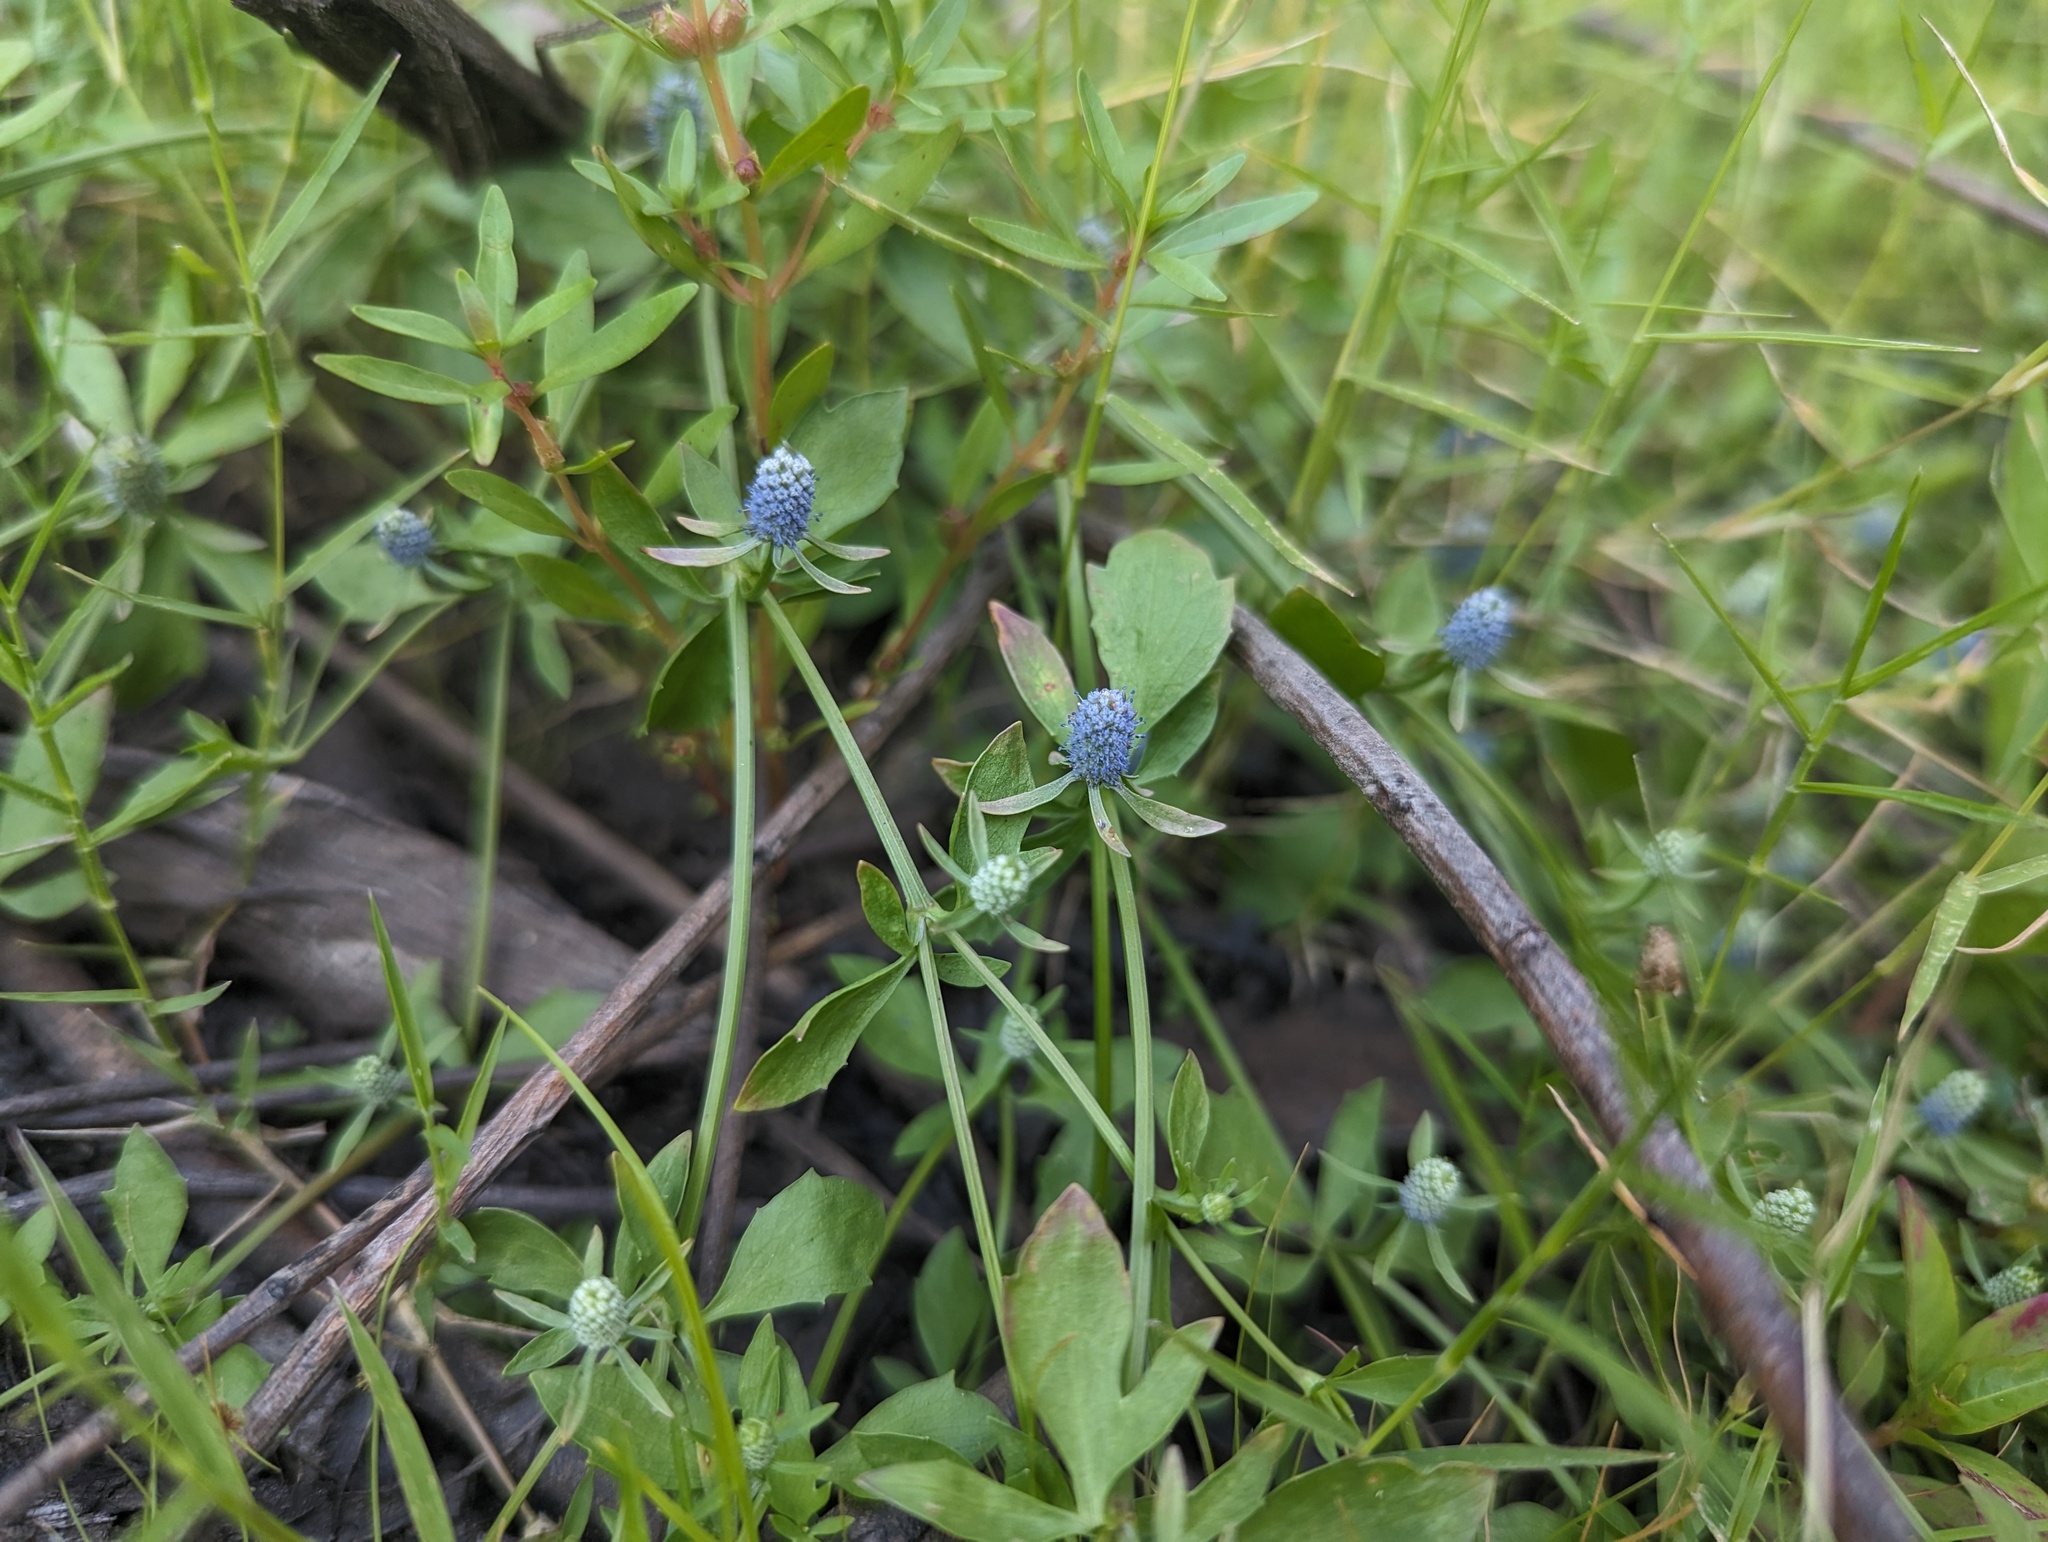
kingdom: Plantae
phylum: Tracheophyta
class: Magnoliopsida
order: Apiales
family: Apiaceae
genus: Eryngium
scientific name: Eryngium prostratum
